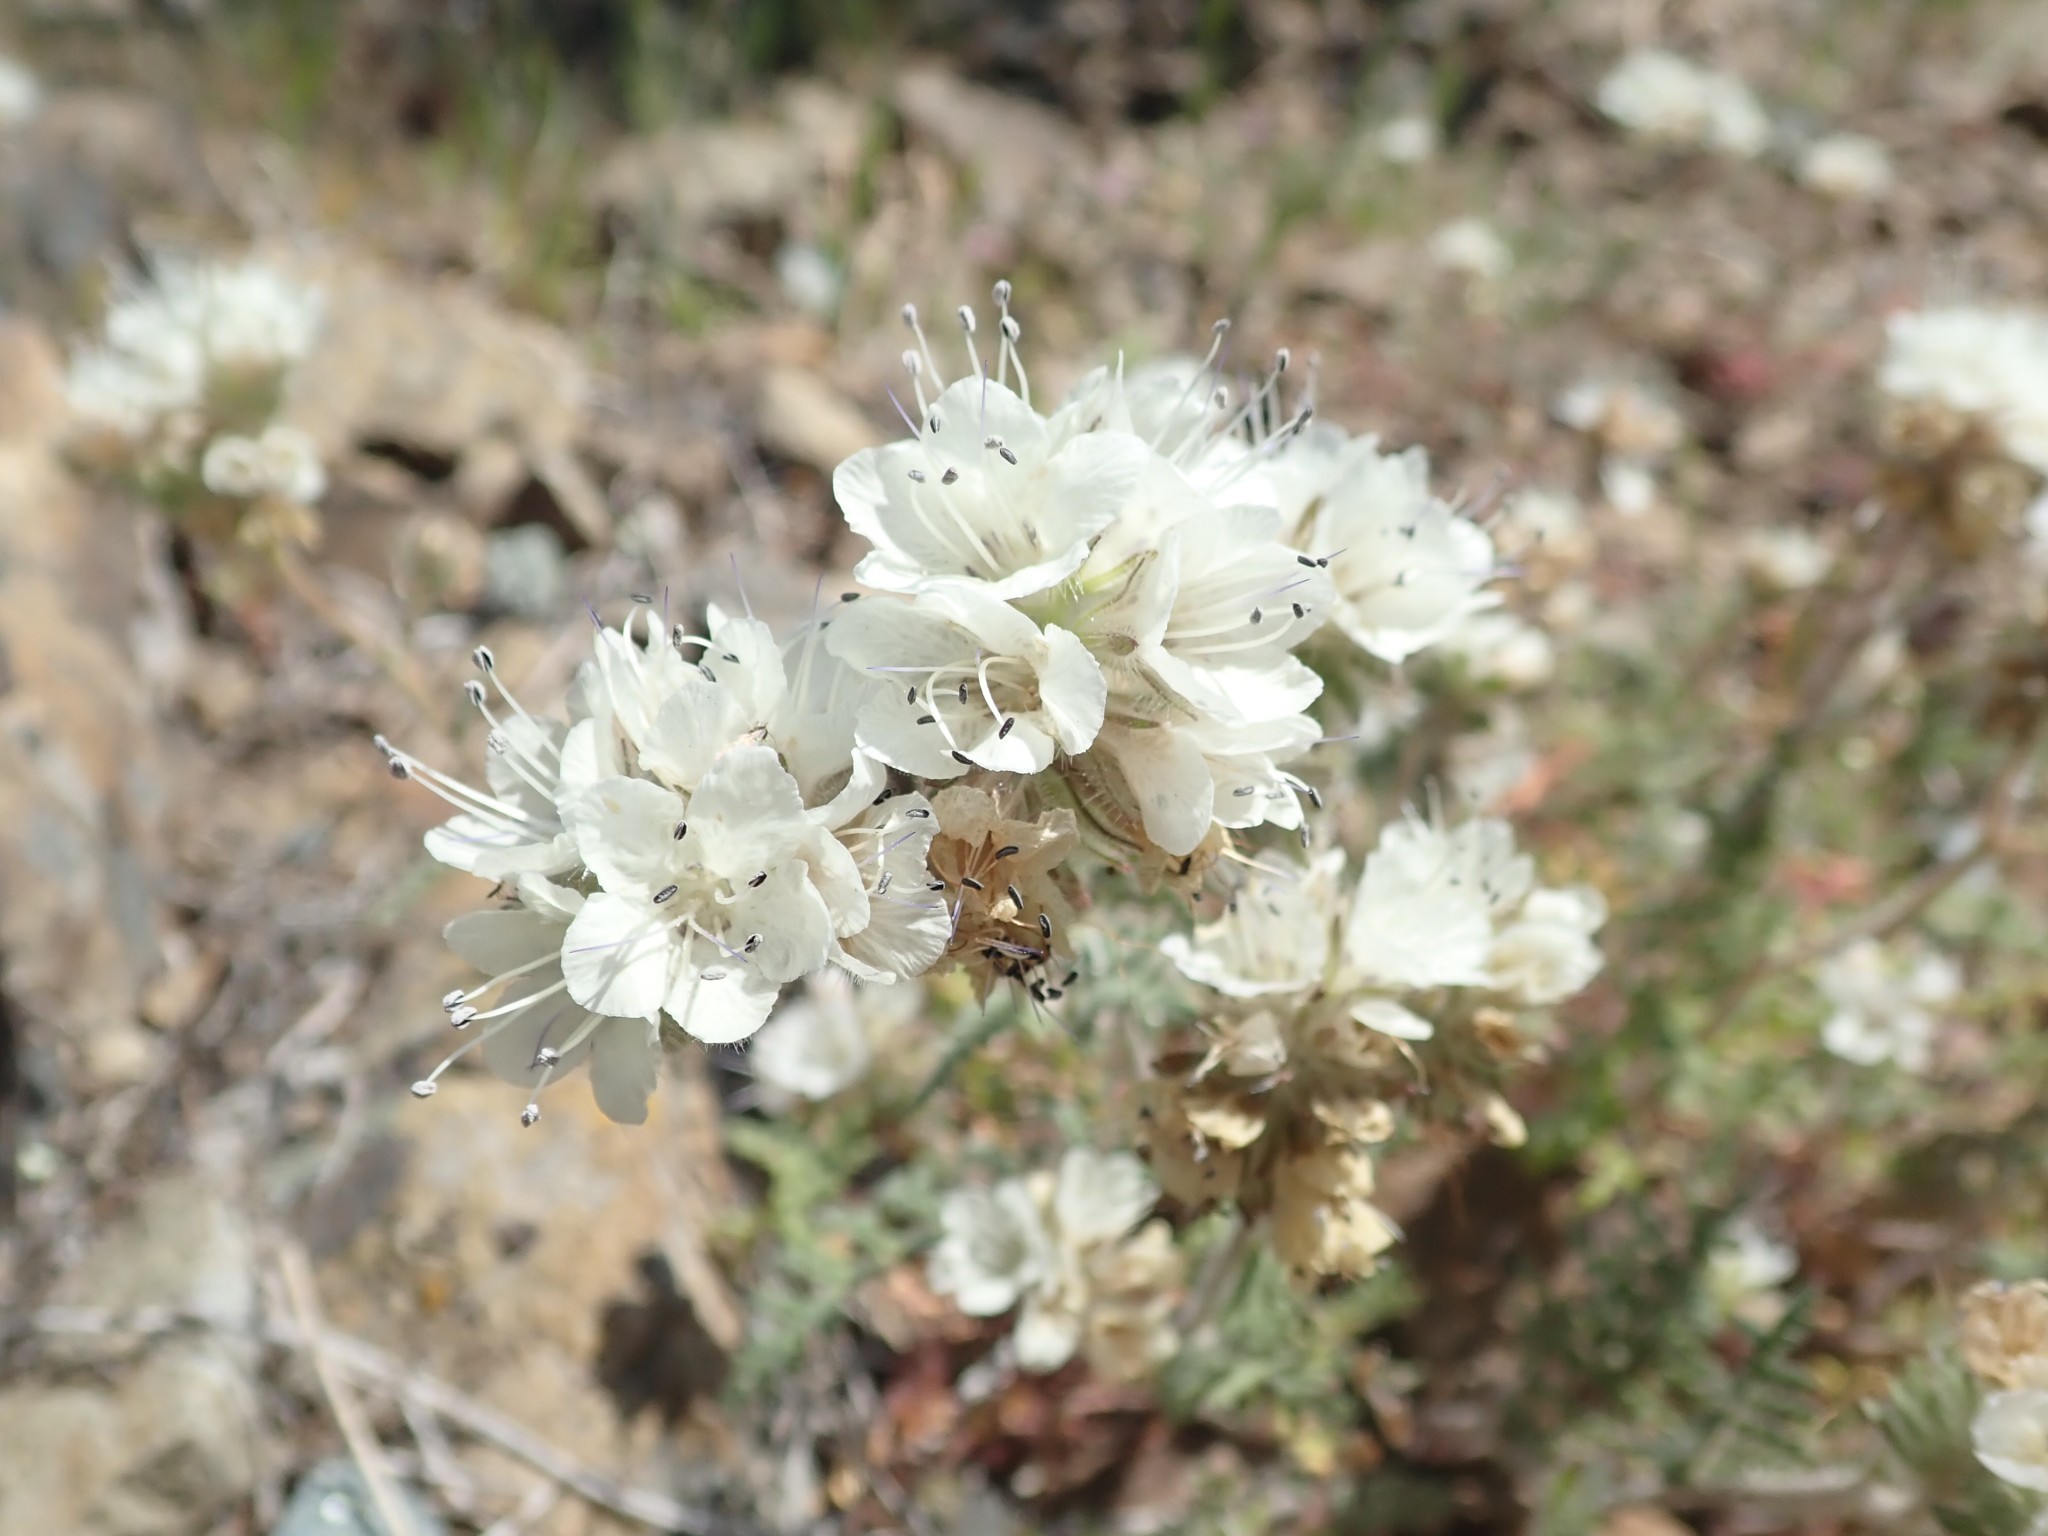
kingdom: Plantae
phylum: Tracheophyta
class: Magnoliopsida
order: Boraginales
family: Hydrophyllaceae
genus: Phacelia
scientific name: Phacelia distans
